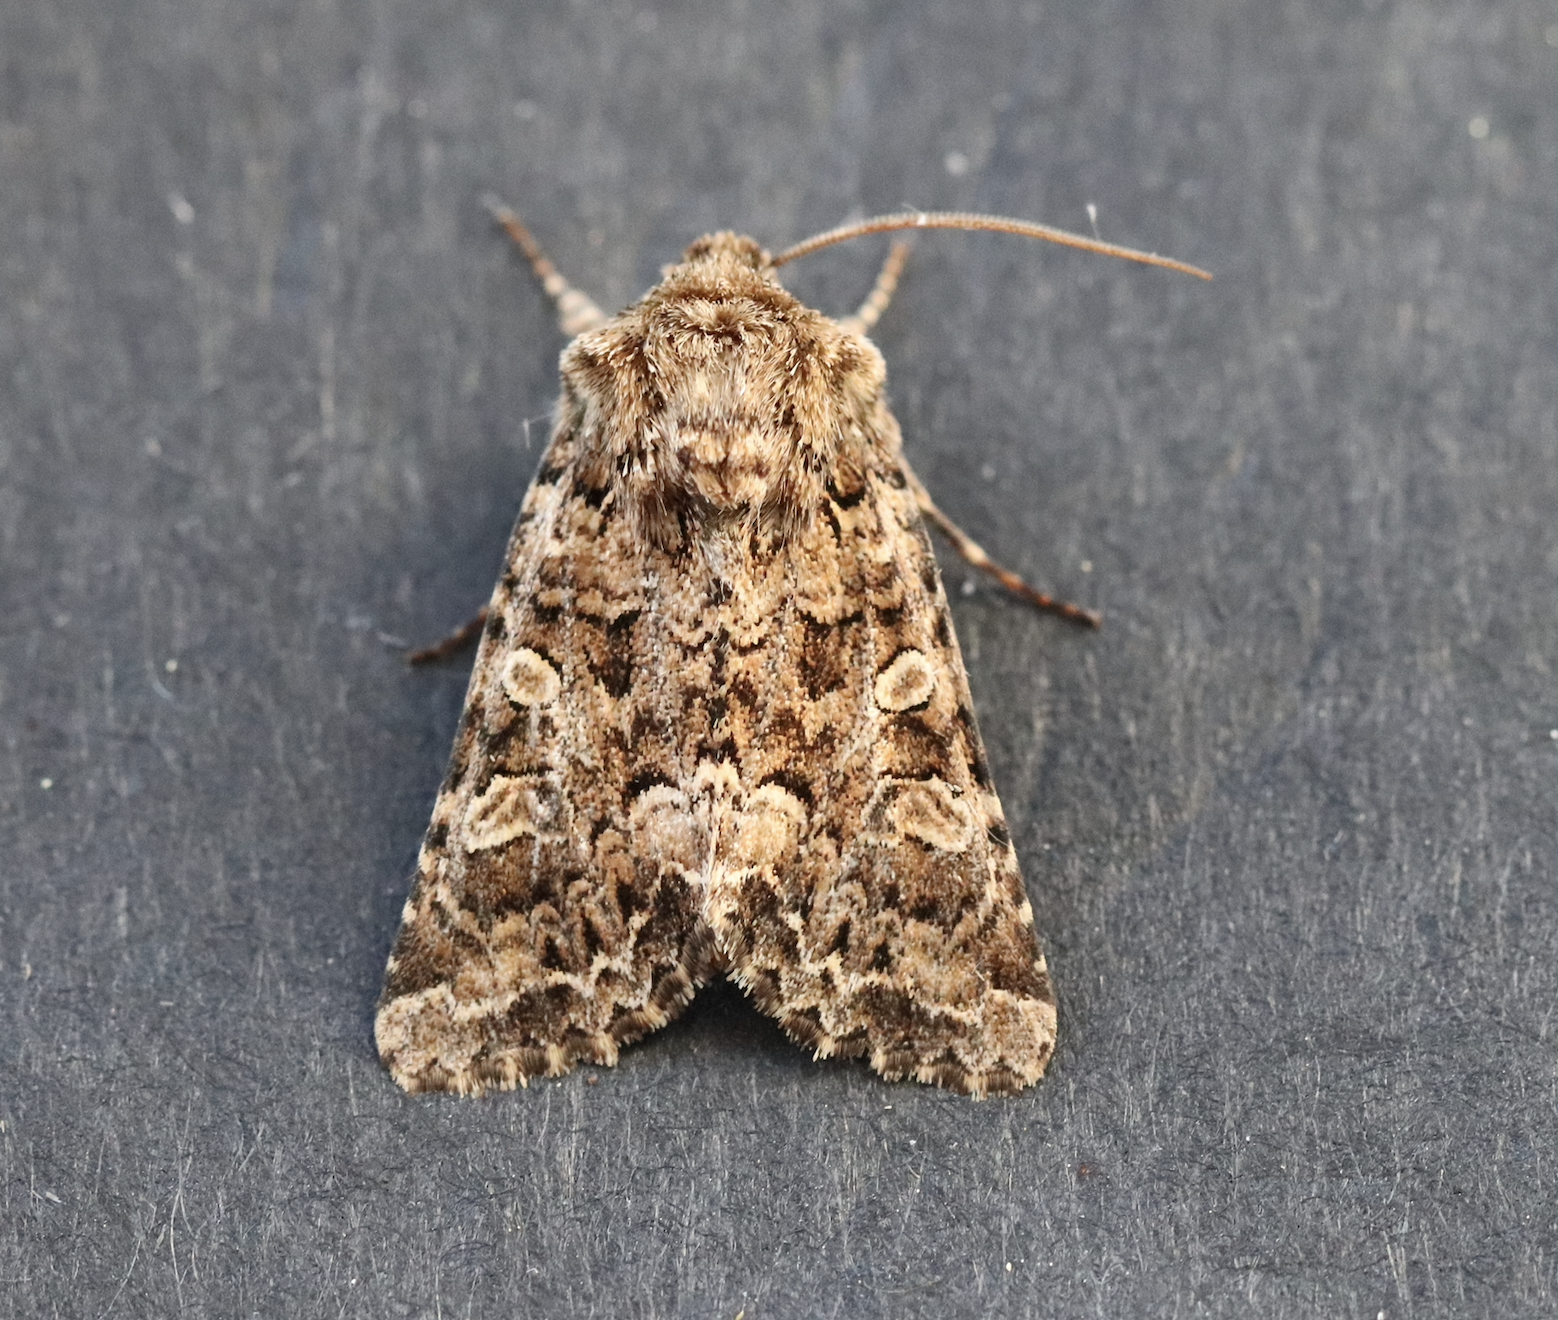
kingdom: Animalia
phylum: Arthropoda
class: Insecta
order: Lepidoptera
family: Noctuidae
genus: Hadena
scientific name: Hadena perplexa
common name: Tawny shears
